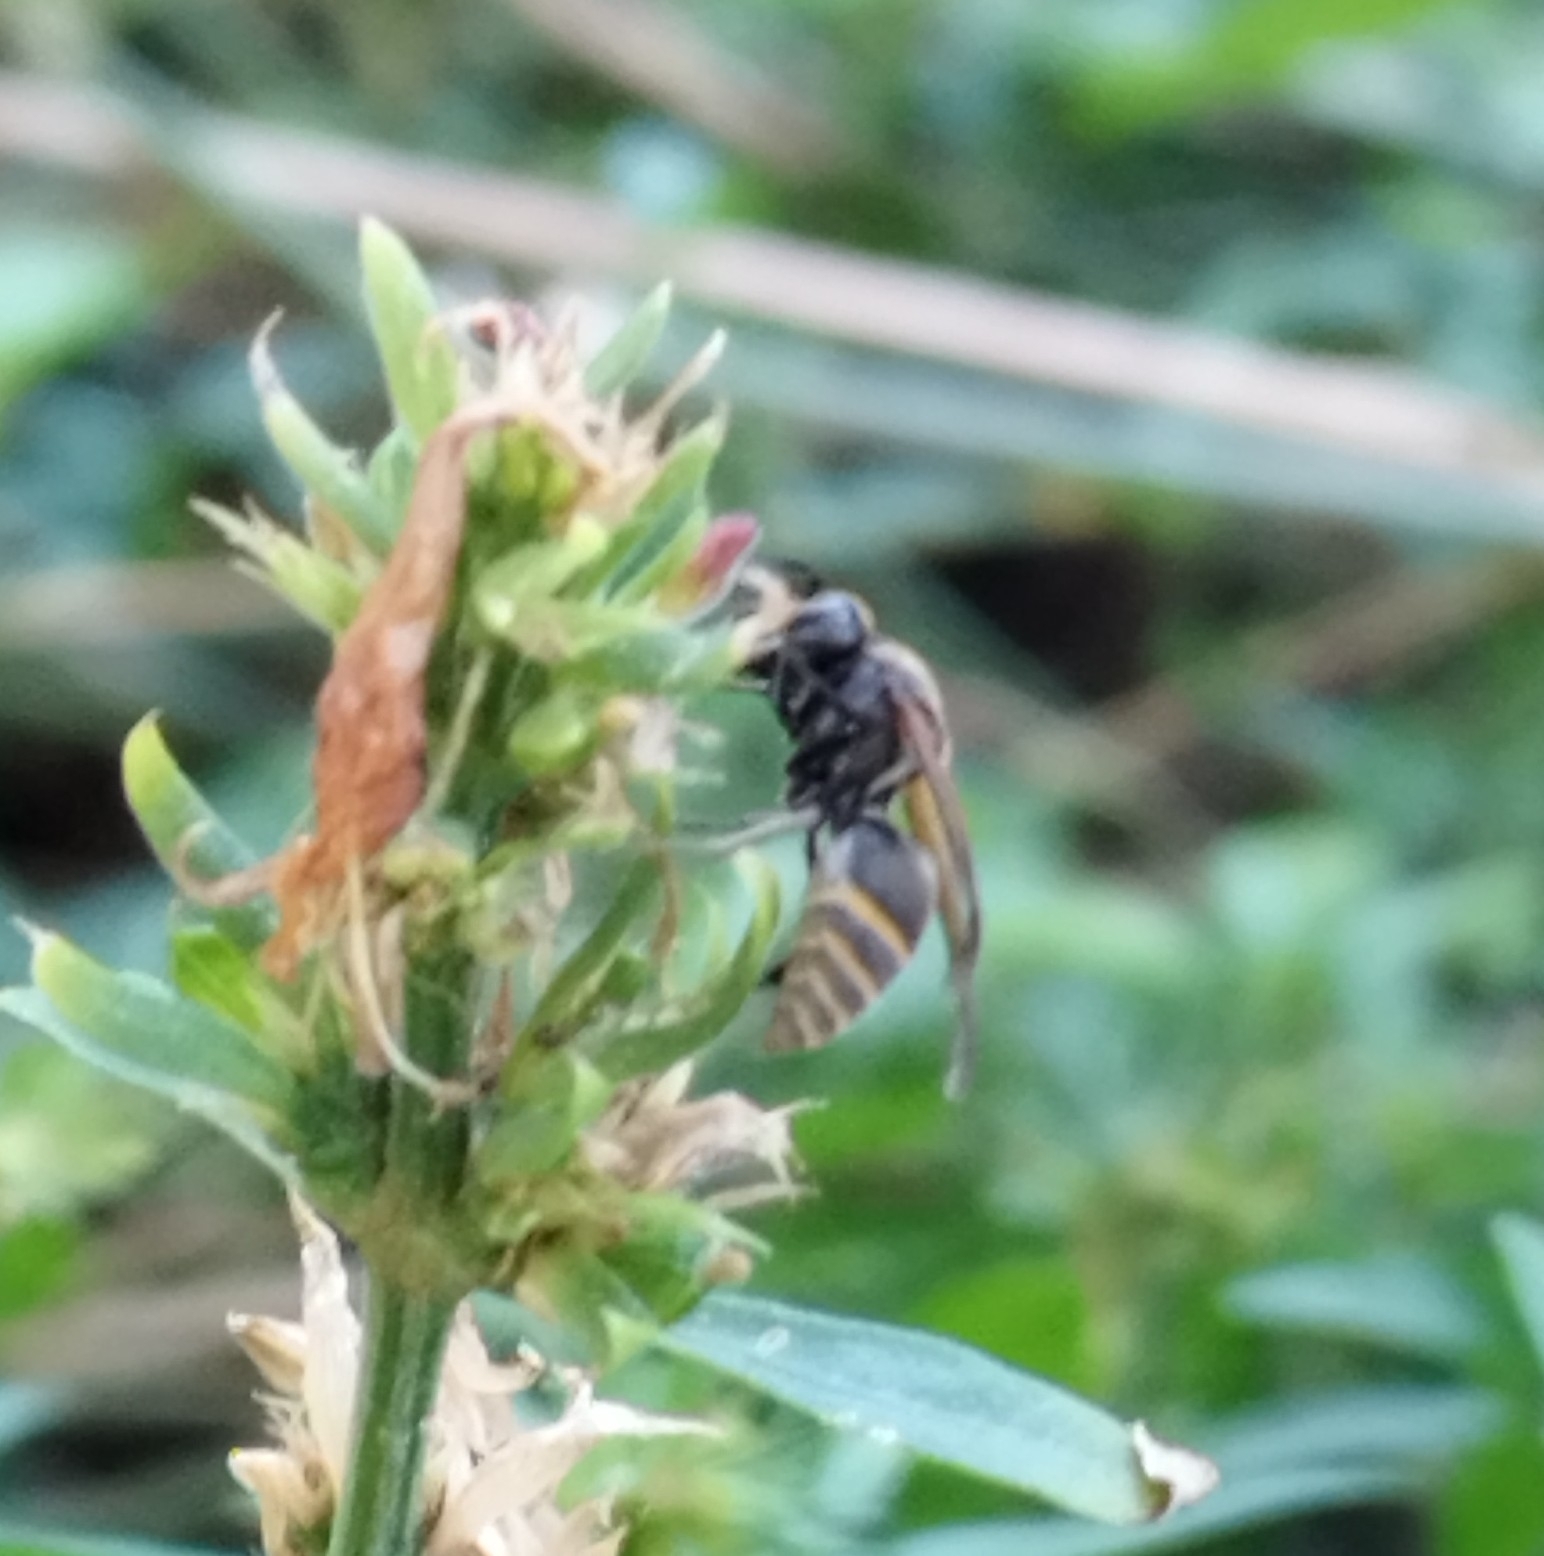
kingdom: Animalia
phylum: Arthropoda
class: Insecta
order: Hymenoptera
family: Vespidae
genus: Brachygastra
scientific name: Brachygastra lecheguana
